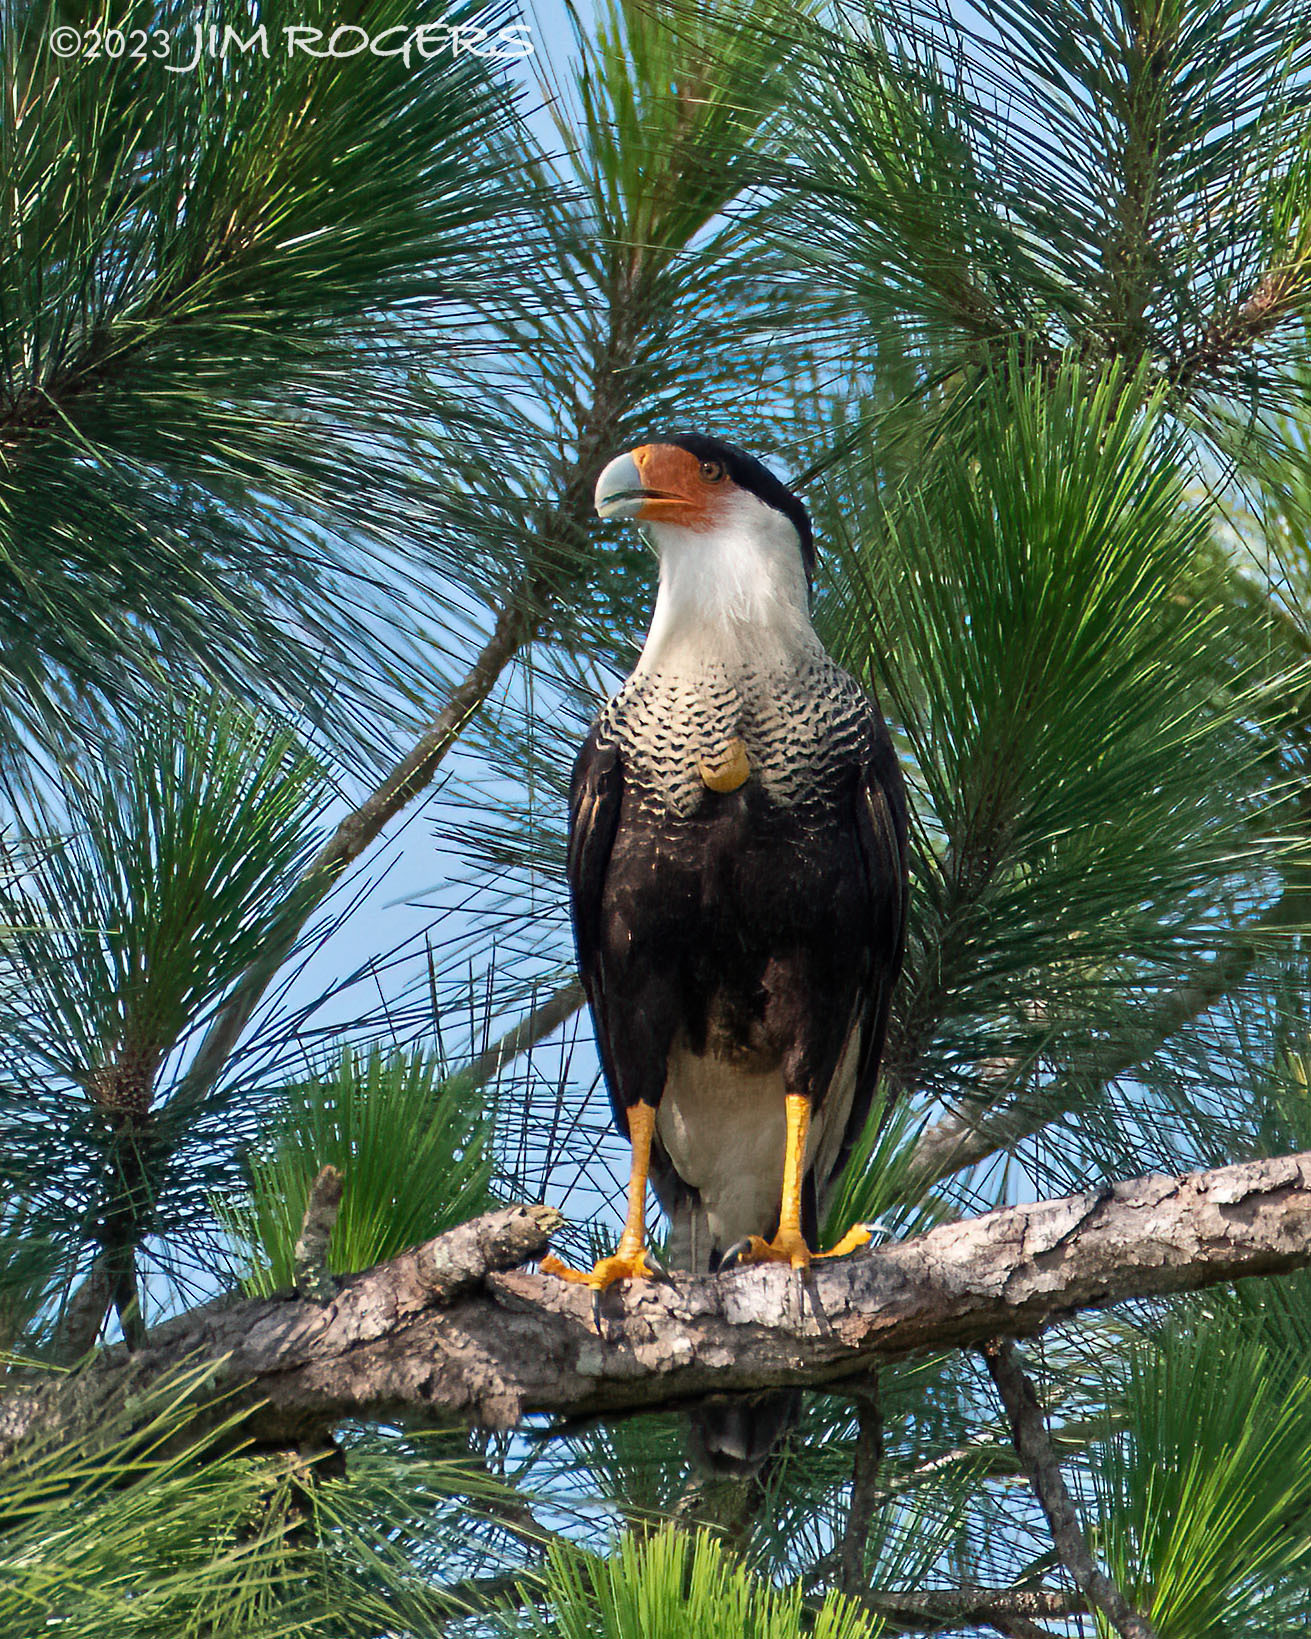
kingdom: Animalia
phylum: Chordata
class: Aves
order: Falconiformes
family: Falconidae
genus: Caracara
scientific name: Caracara plancus
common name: Southern caracara
